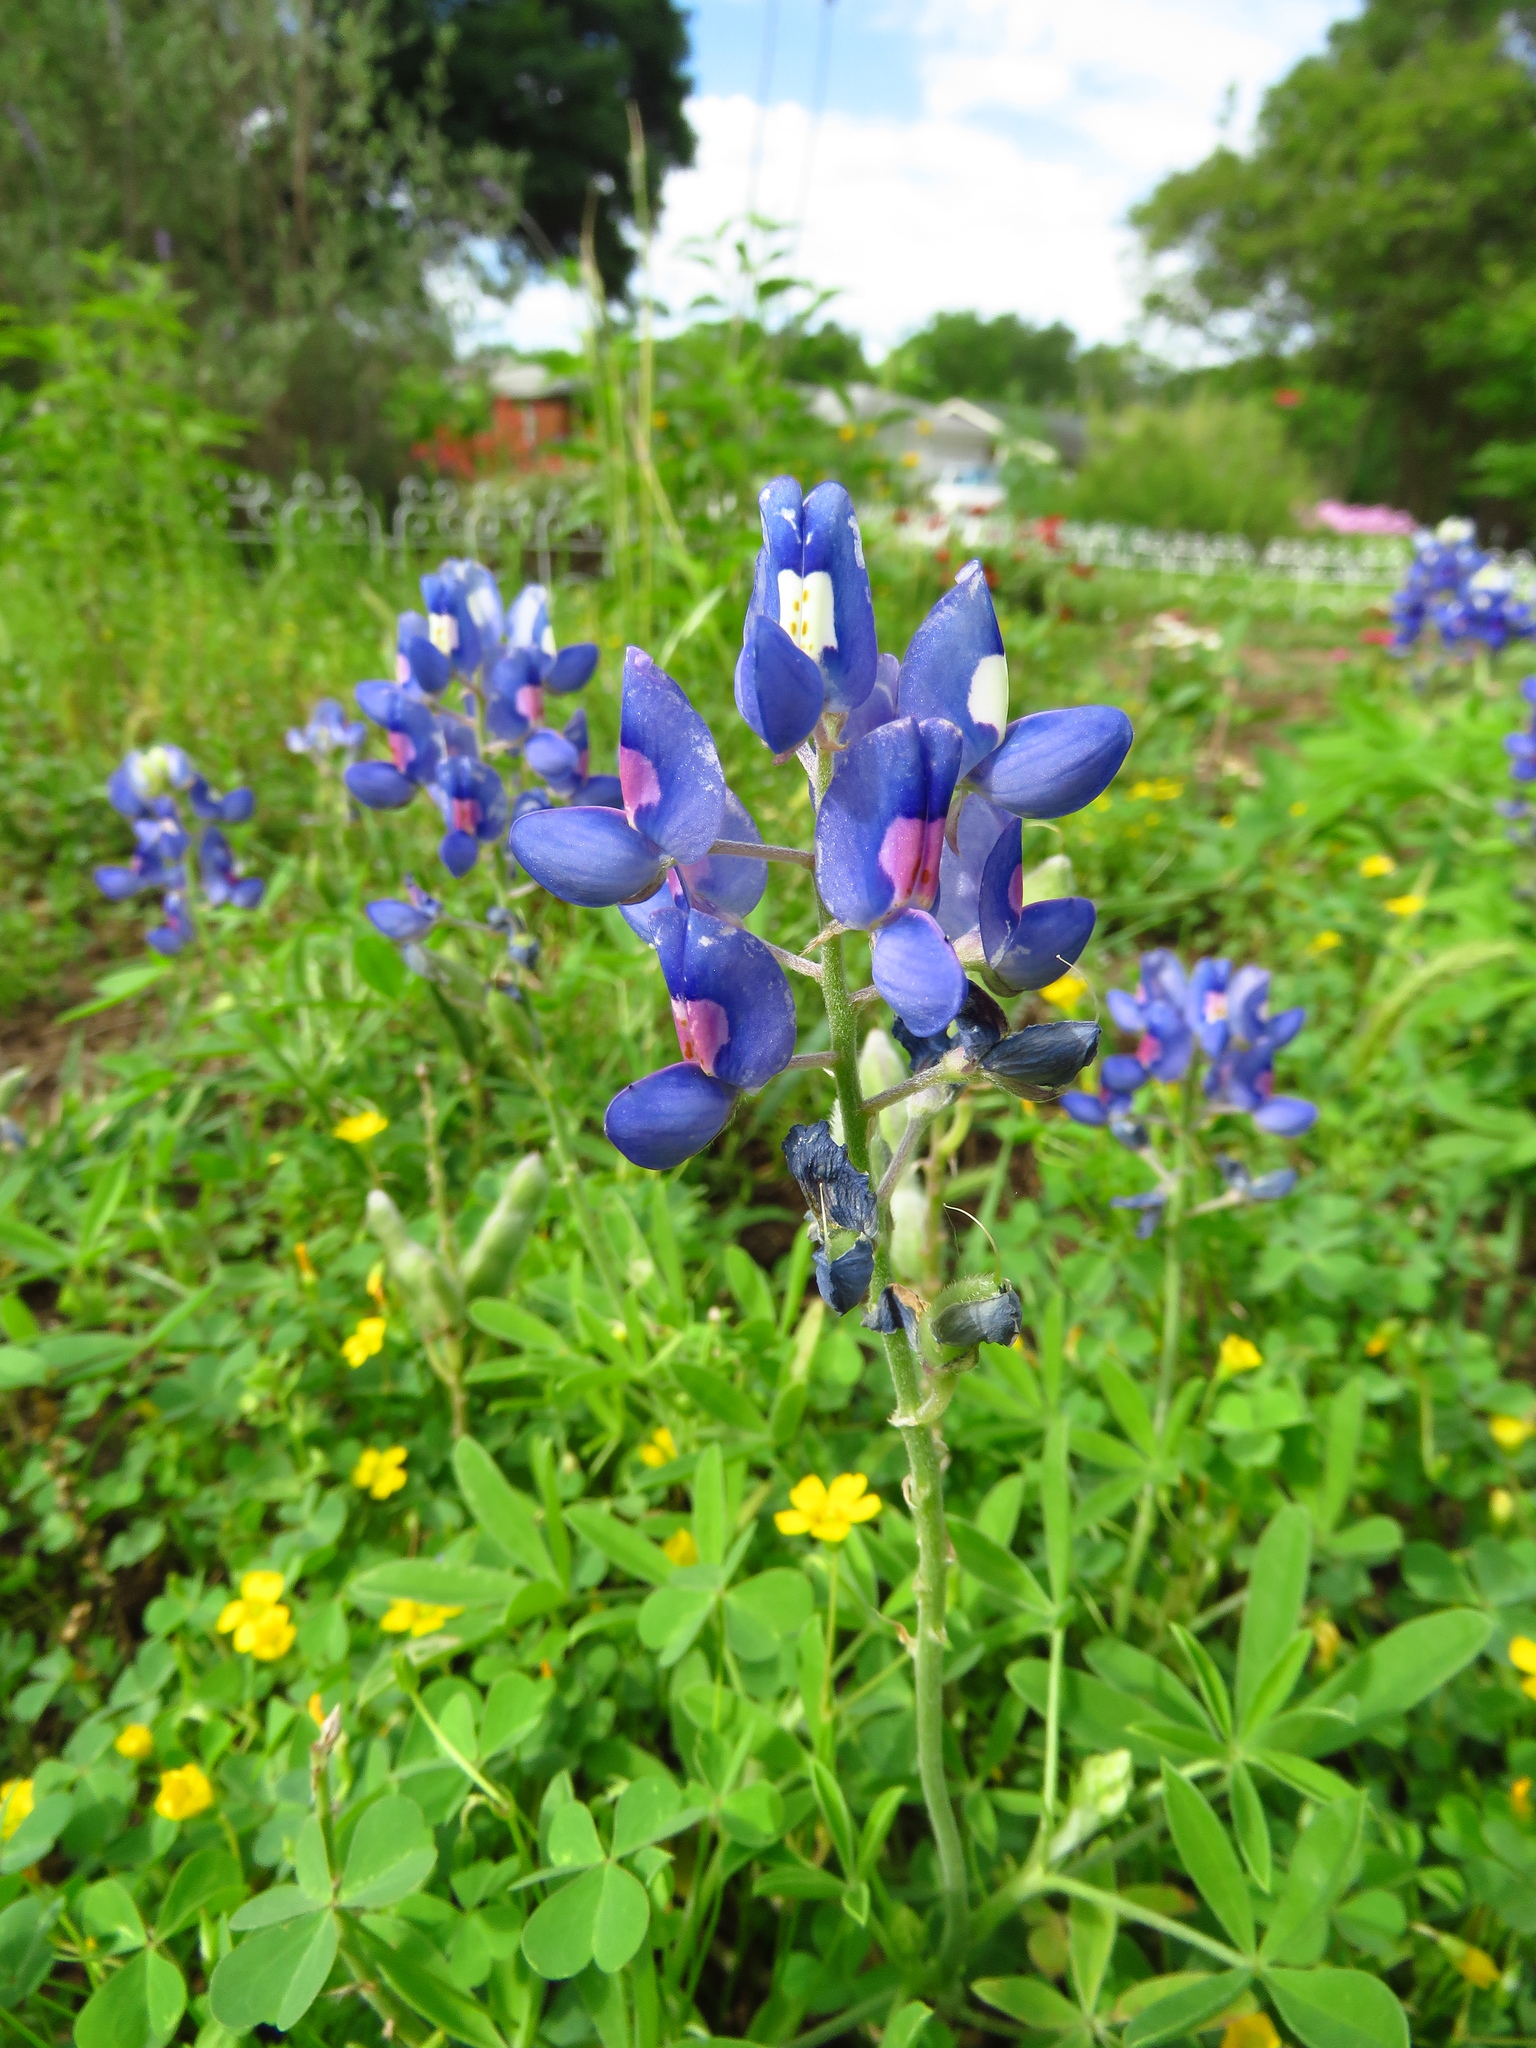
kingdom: Plantae
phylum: Tracheophyta
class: Magnoliopsida
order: Fabales
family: Fabaceae
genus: Lupinus
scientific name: Lupinus texensis
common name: Texas bluebonnet
